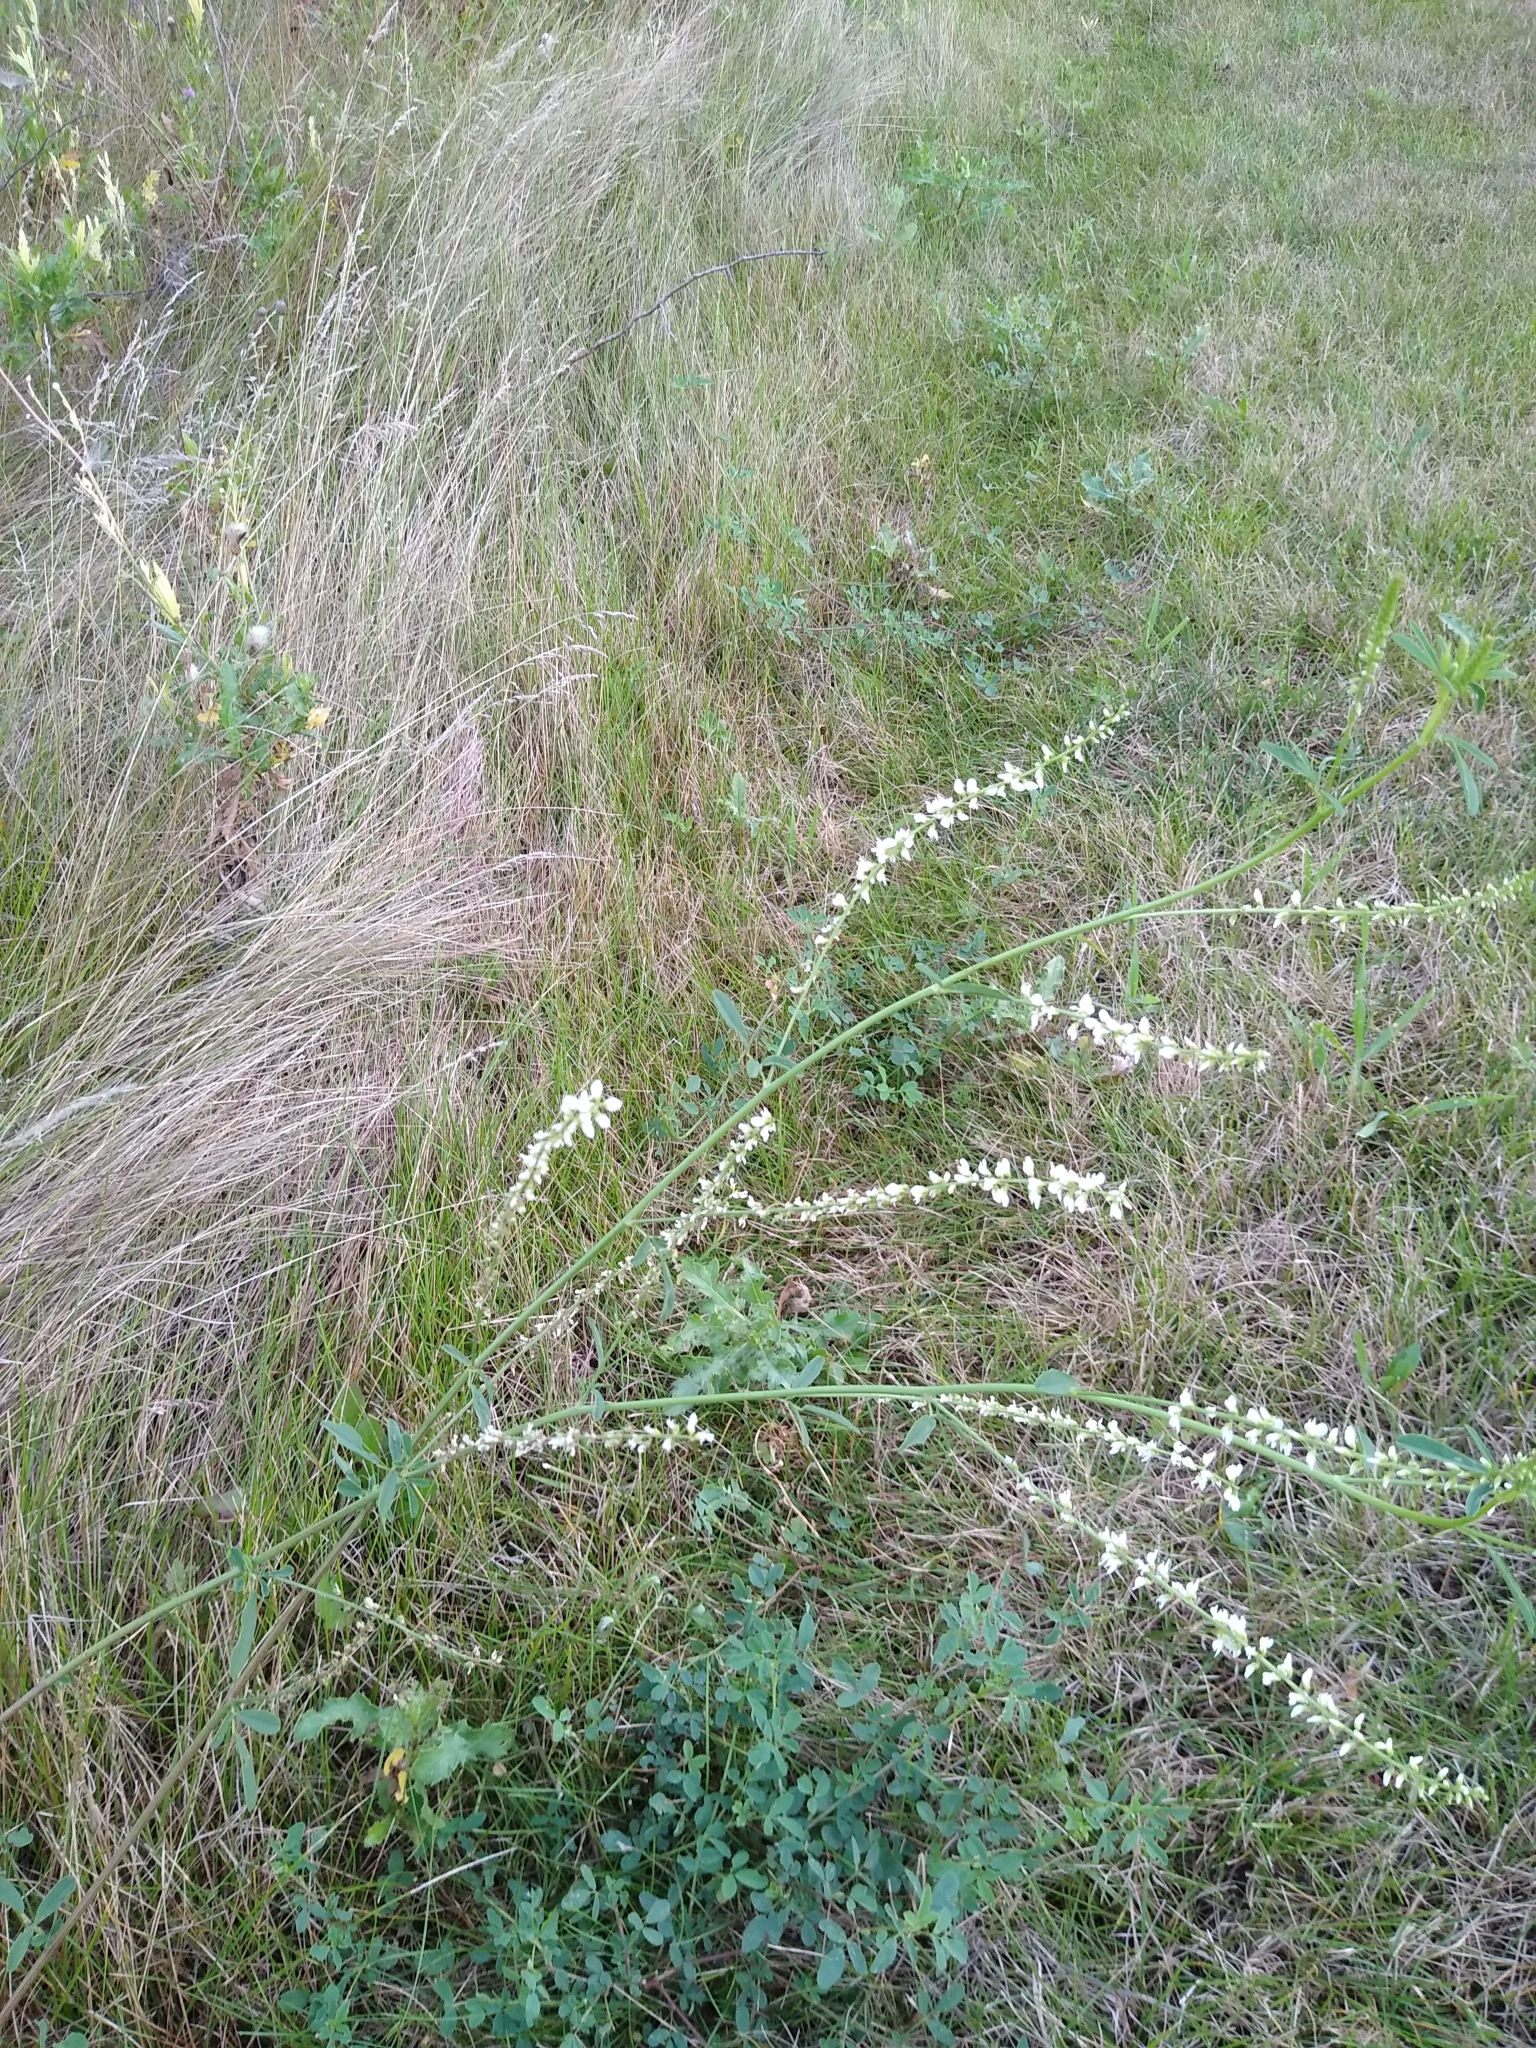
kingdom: Plantae
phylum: Tracheophyta
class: Magnoliopsida
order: Fabales
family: Fabaceae
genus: Melilotus
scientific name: Melilotus albus
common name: White melilot
